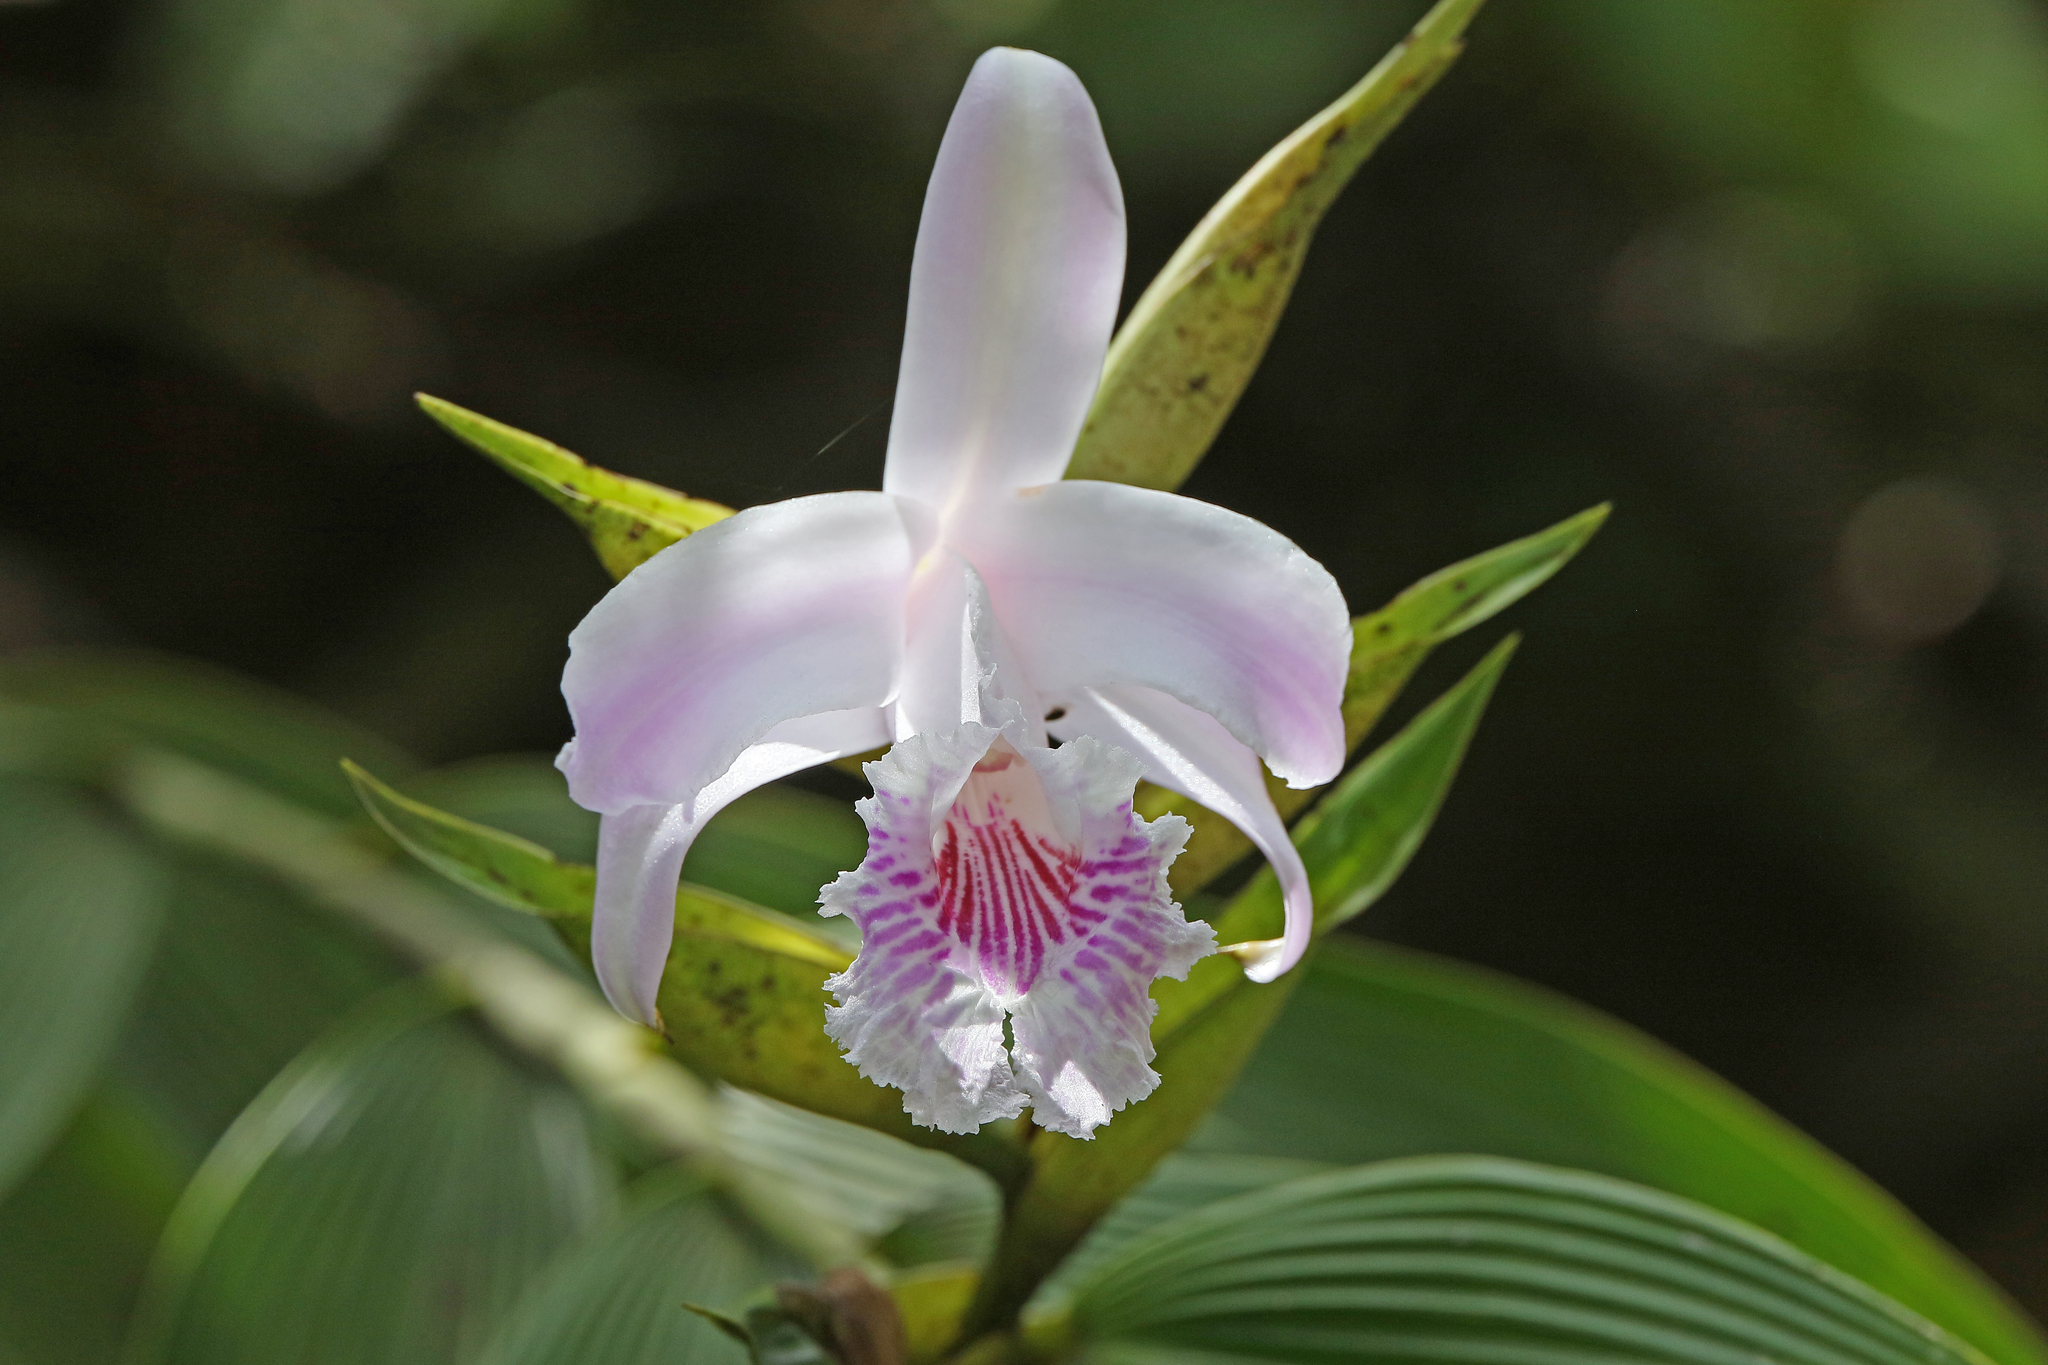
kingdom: Plantae
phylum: Tracheophyta
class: Liliopsida
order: Asparagales
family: Orchidaceae
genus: Sobralia
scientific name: Sobralia pulcherrima
